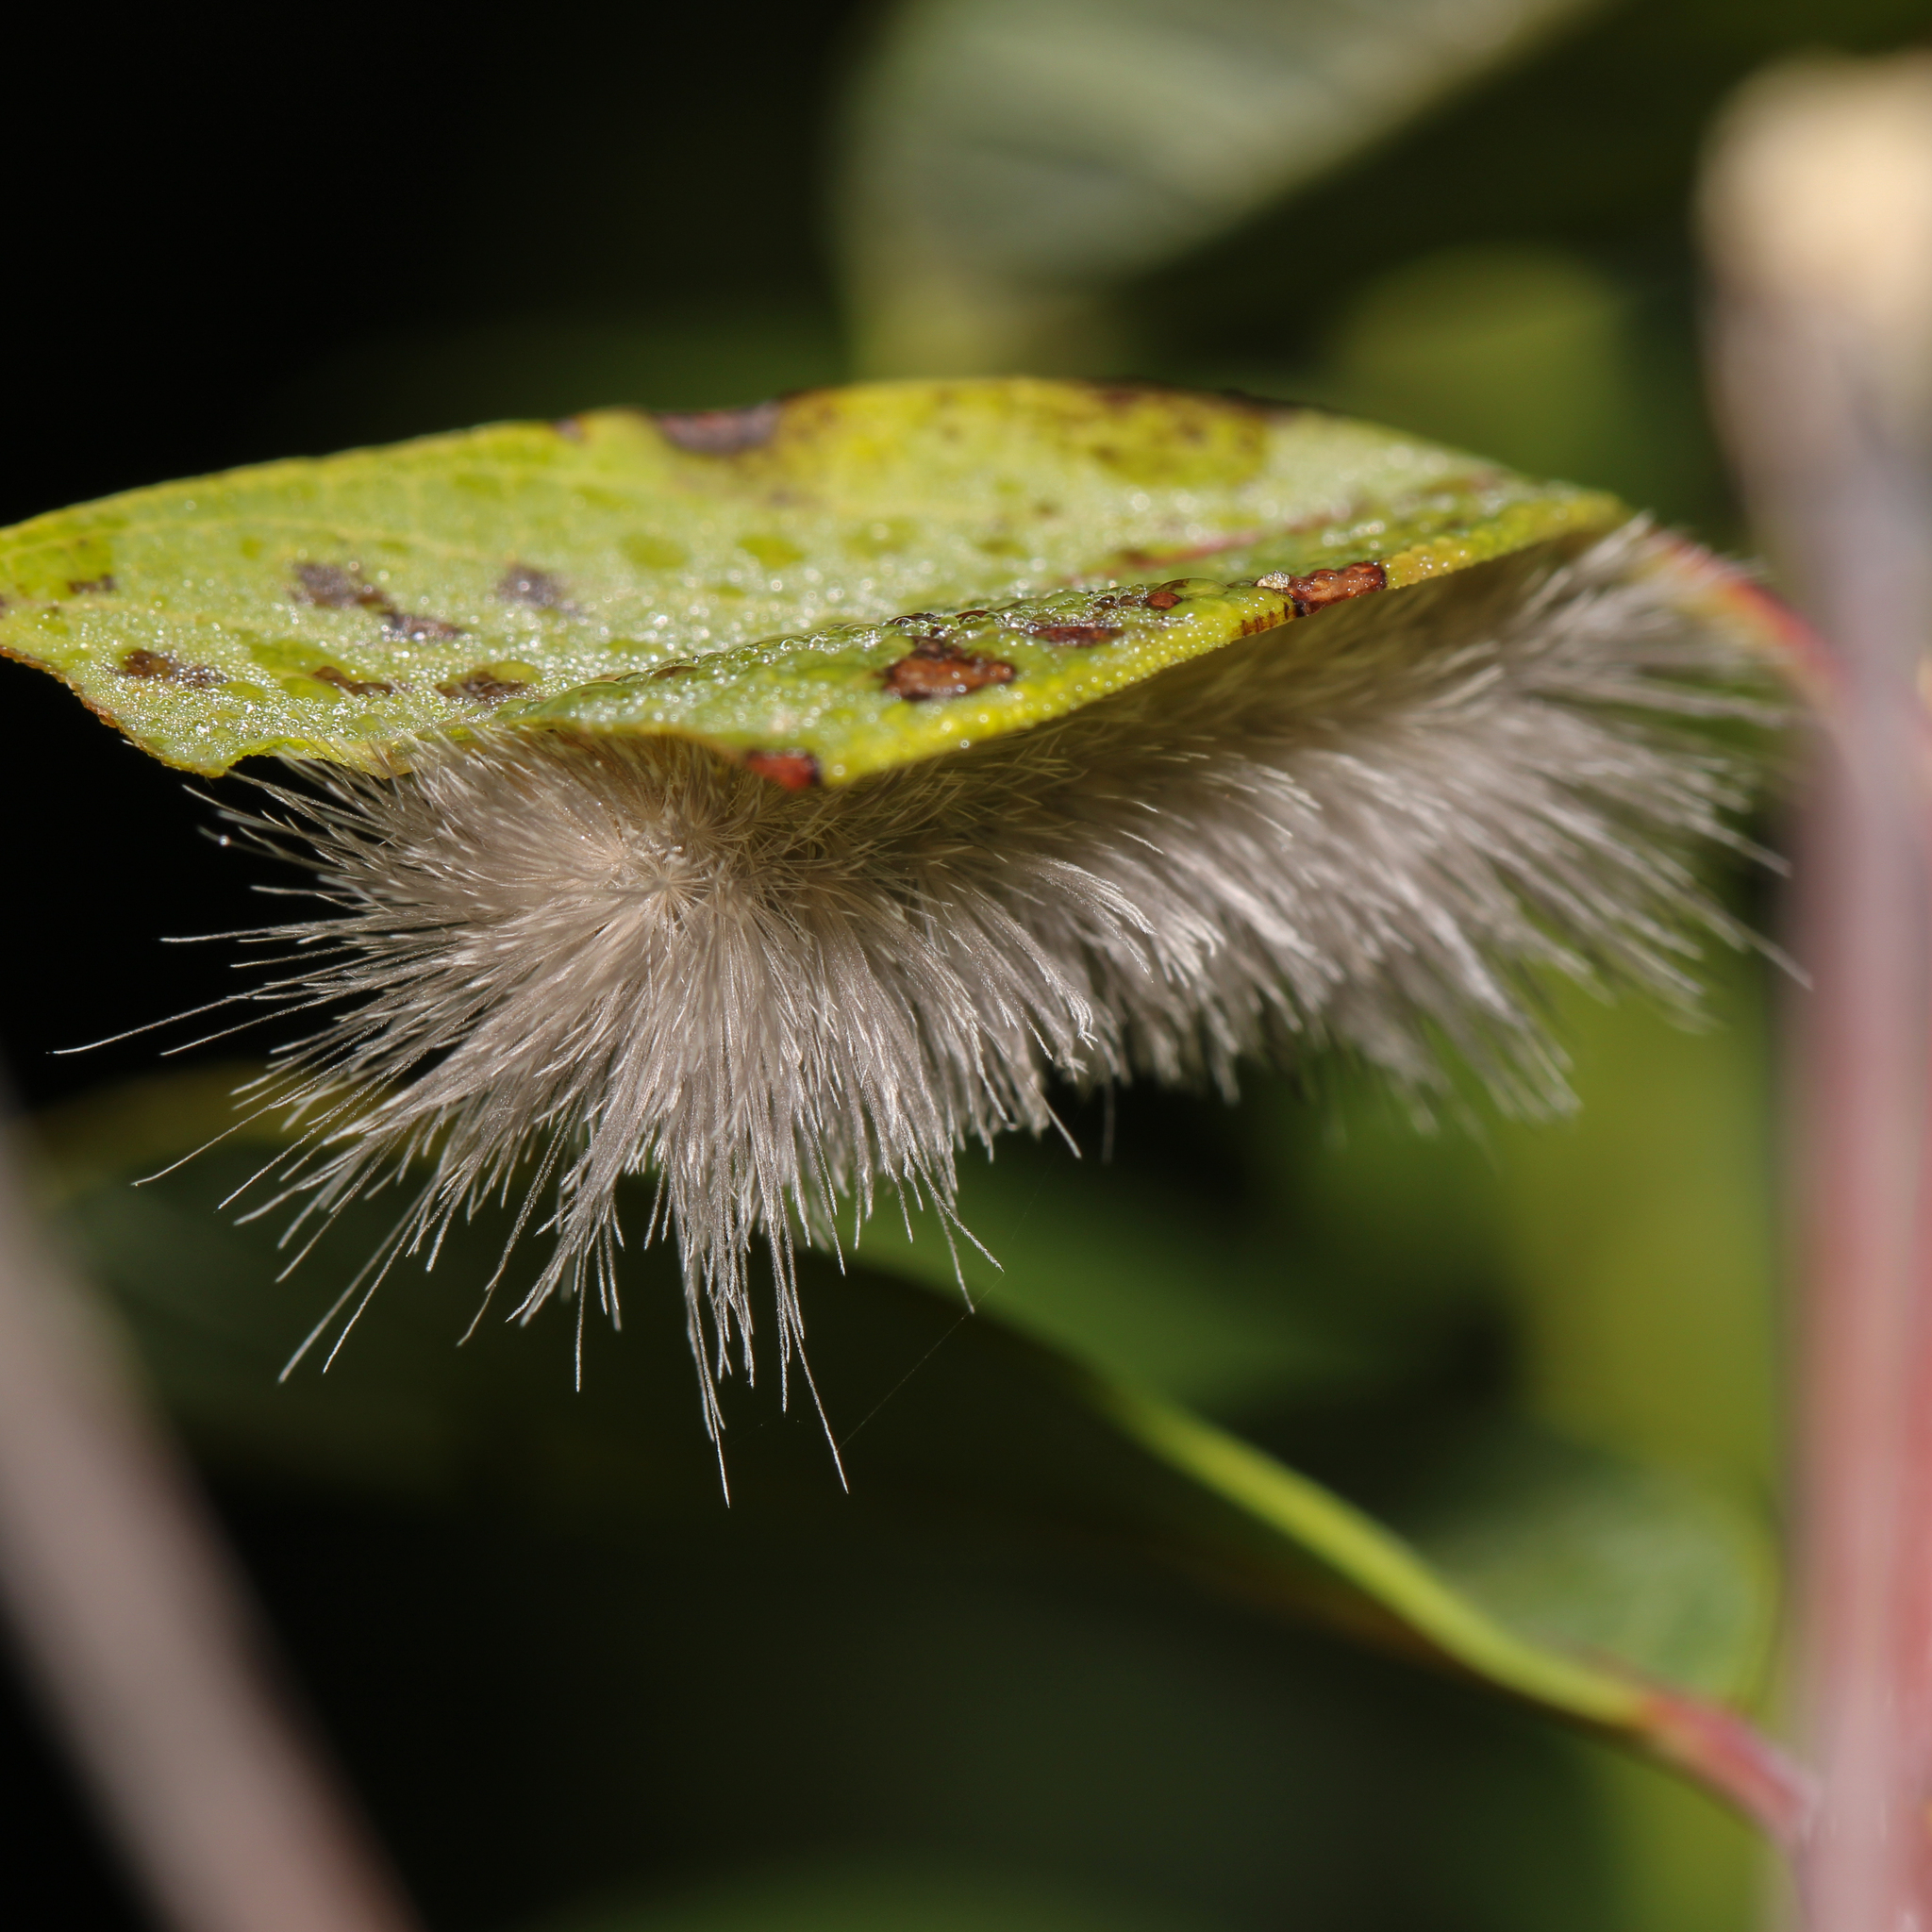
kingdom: Animalia
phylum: Arthropoda
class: Insecta
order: Lepidoptera
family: Erebidae
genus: Cycnia
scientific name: Cycnia tenera
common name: Delicate cycnia moth
